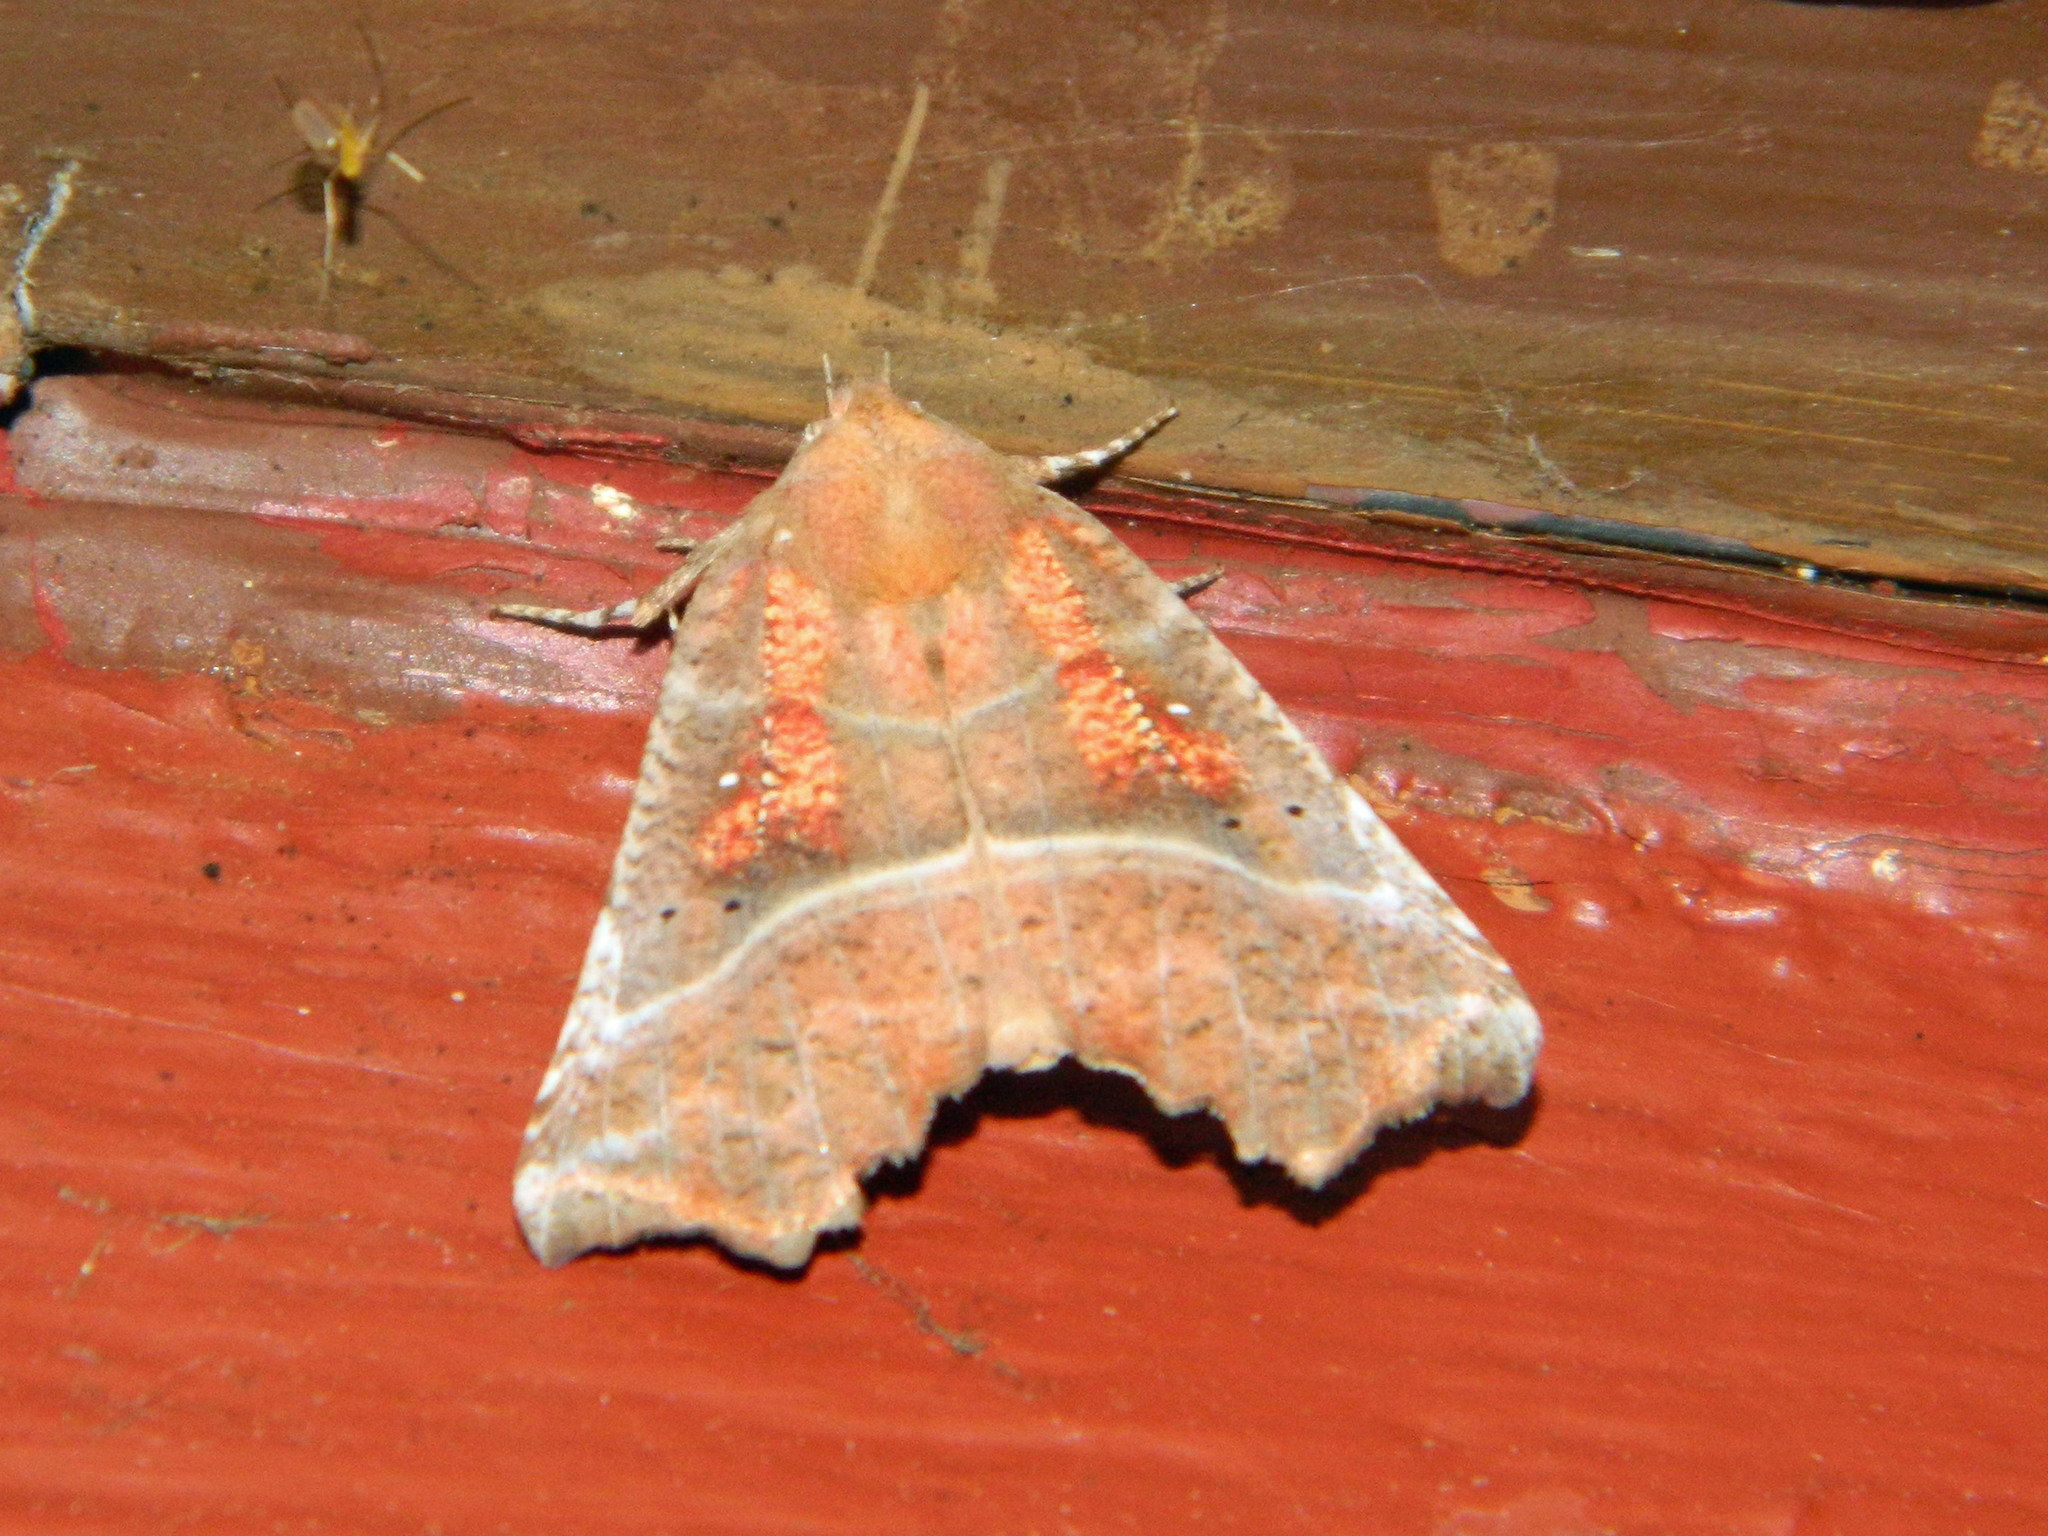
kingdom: Animalia
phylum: Arthropoda
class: Insecta
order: Lepidoptera
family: Erebidae
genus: Scoliopteryx
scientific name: Scoliopteryx libatrix
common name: Herald
